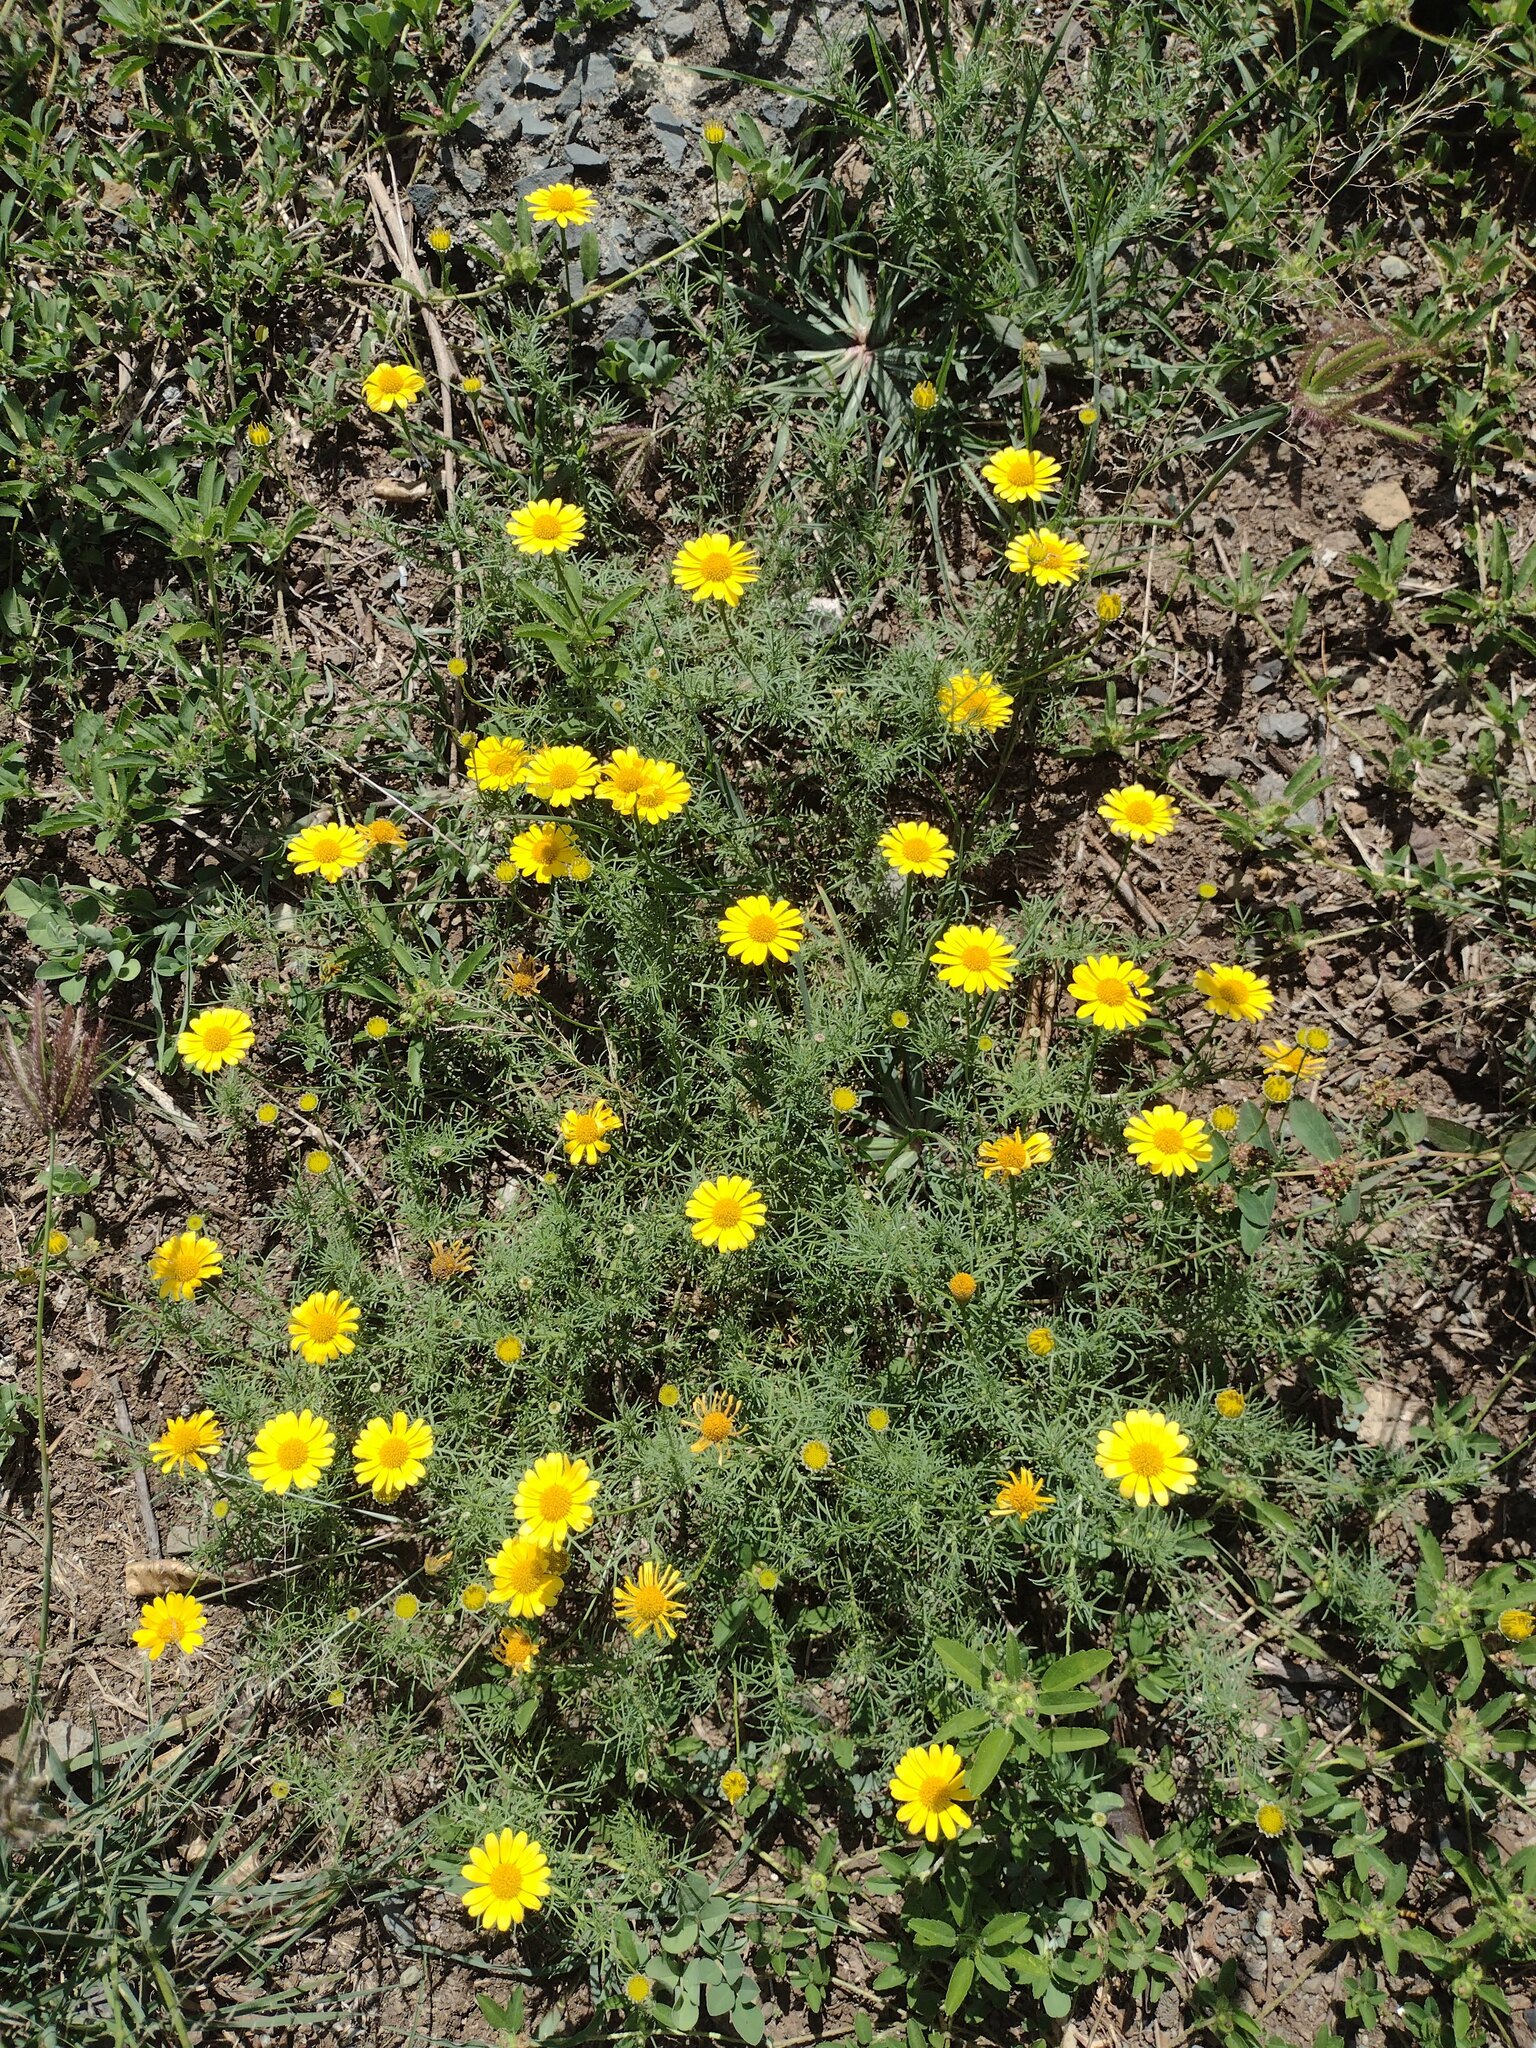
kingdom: Plantae
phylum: Tracheophyta
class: Magnoliopsida
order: Asterales
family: Asteraceae
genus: Thymophylla
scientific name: Thymophylla tenuiloba
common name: Dahlberg's daisy
